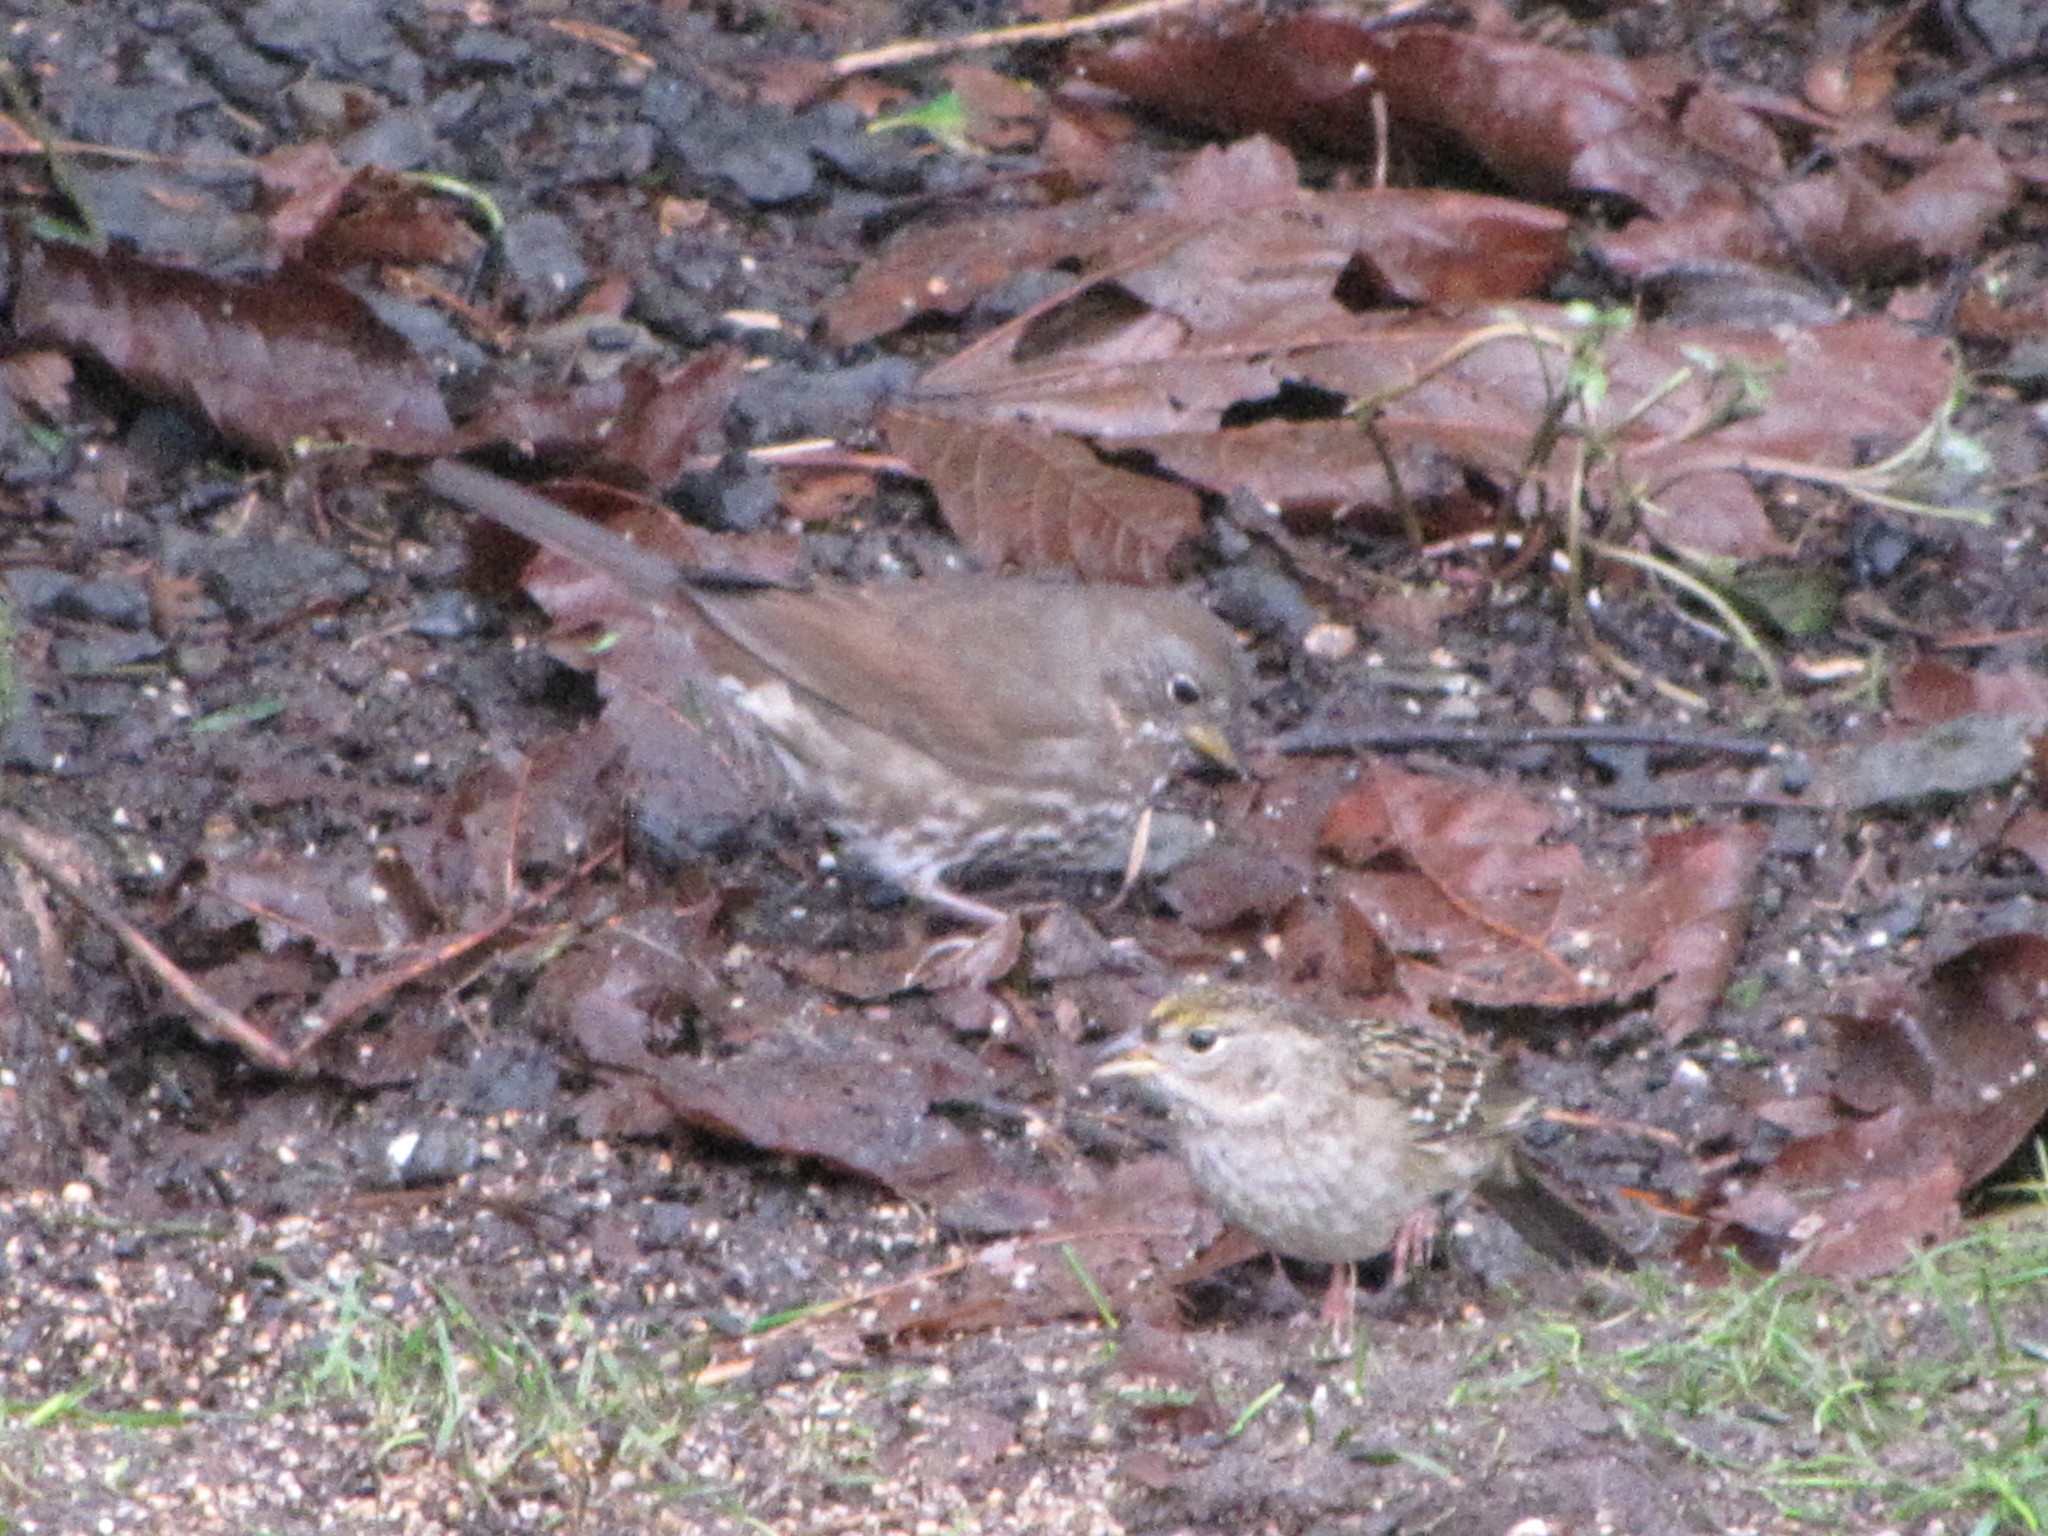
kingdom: Animalia
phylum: Chordata
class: Aves
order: Passeriformes
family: Passerellidae
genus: Zonotrichia
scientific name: Zonotrichia atricapilla
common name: Golden-crowned sparrow
